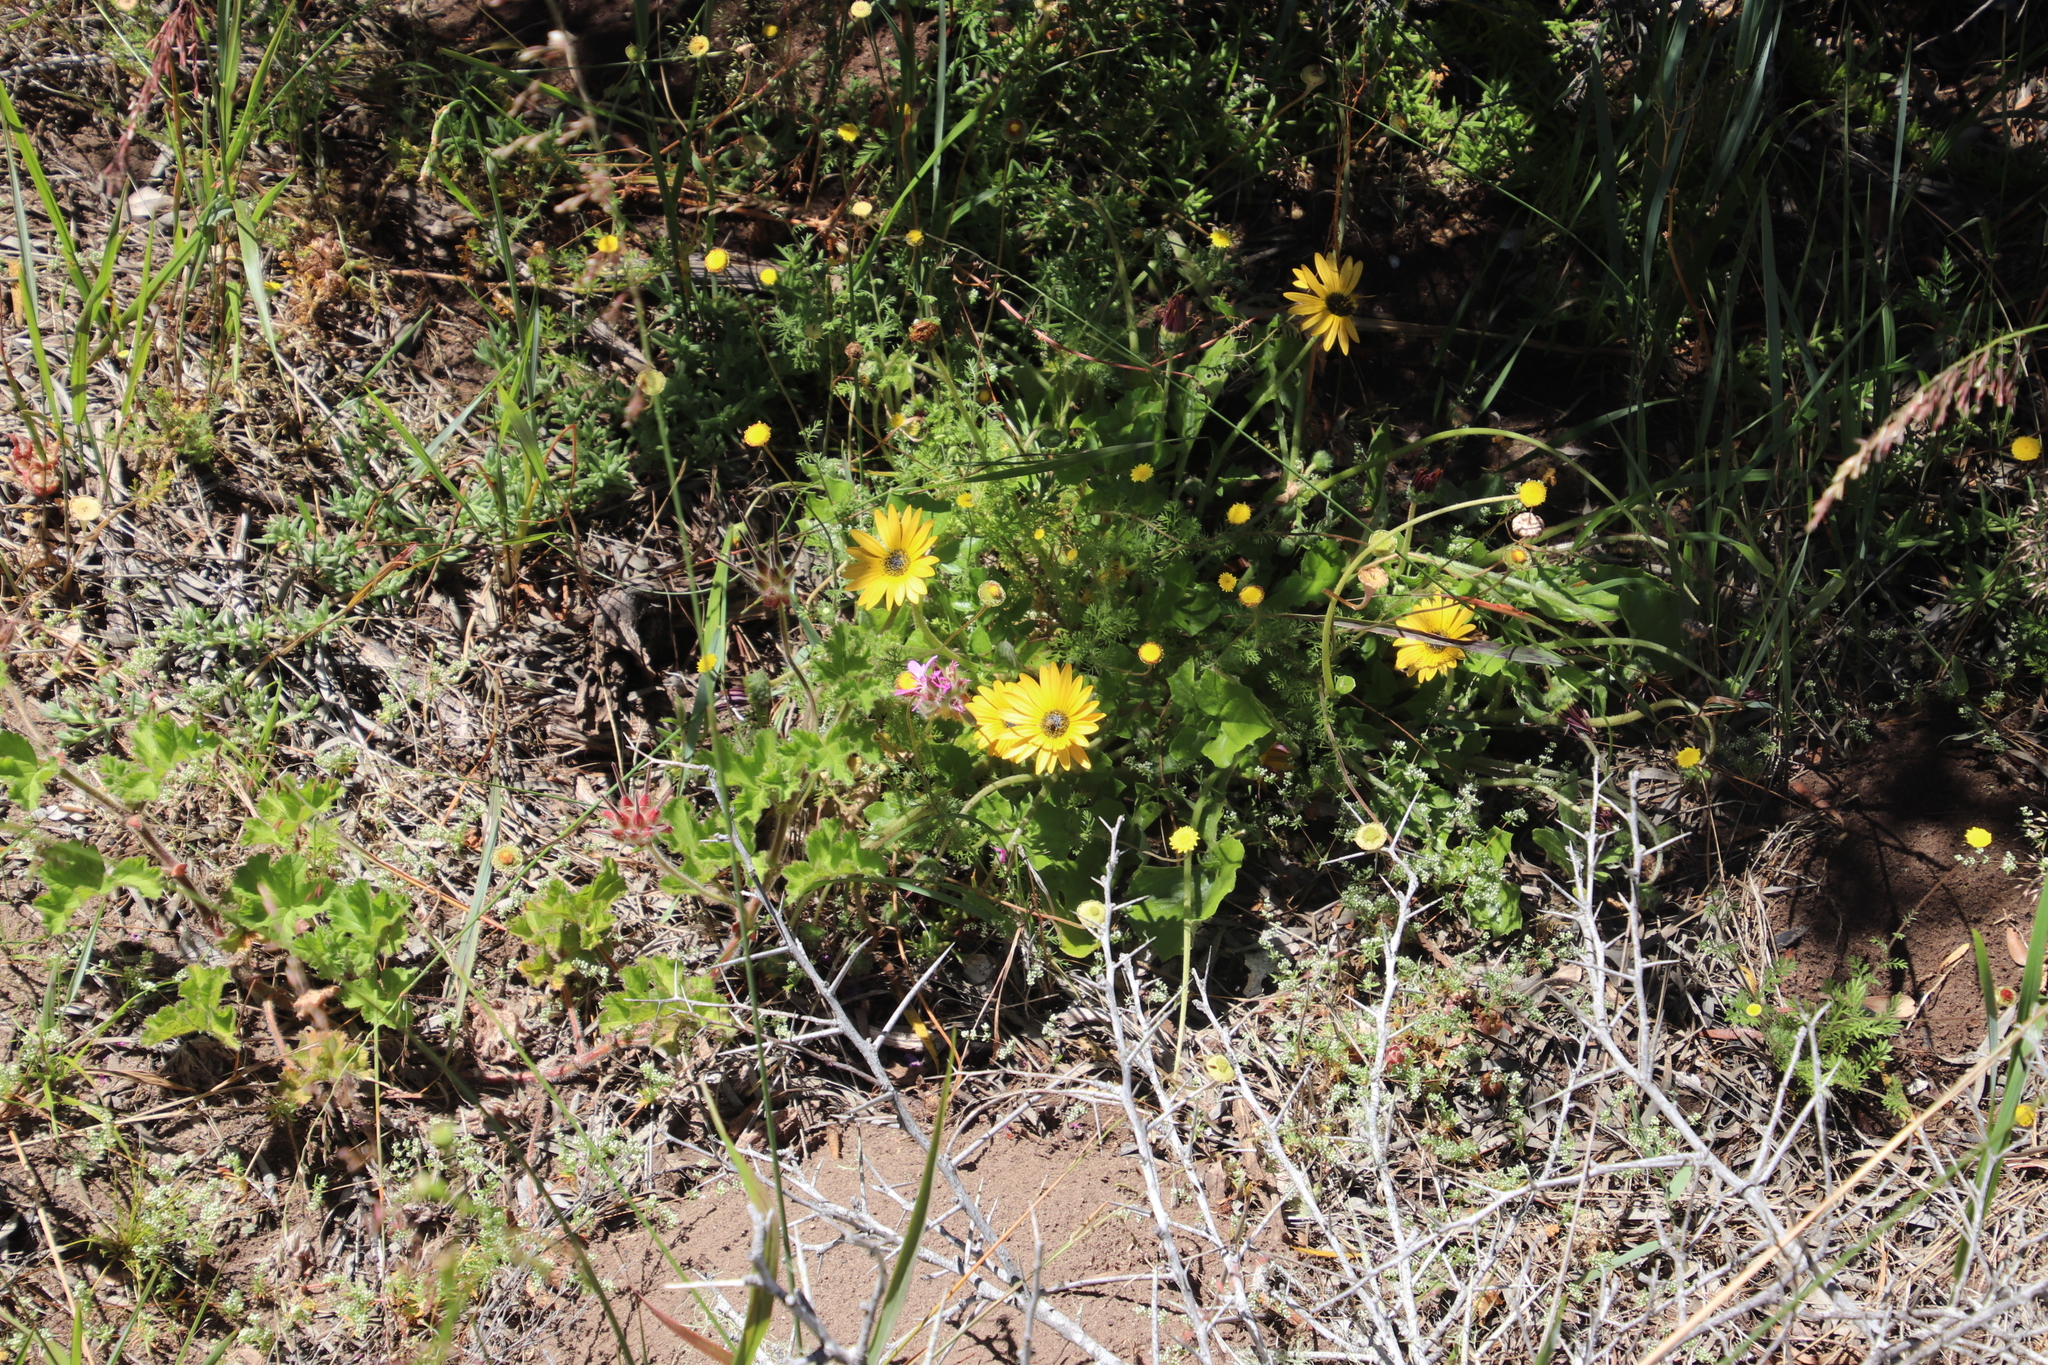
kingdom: Plantae
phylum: Tracheophyta
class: Magnoliopsida
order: Asterales
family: Asteraceae
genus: Arctotheca
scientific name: Arctotheca calendula
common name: Capeweed
